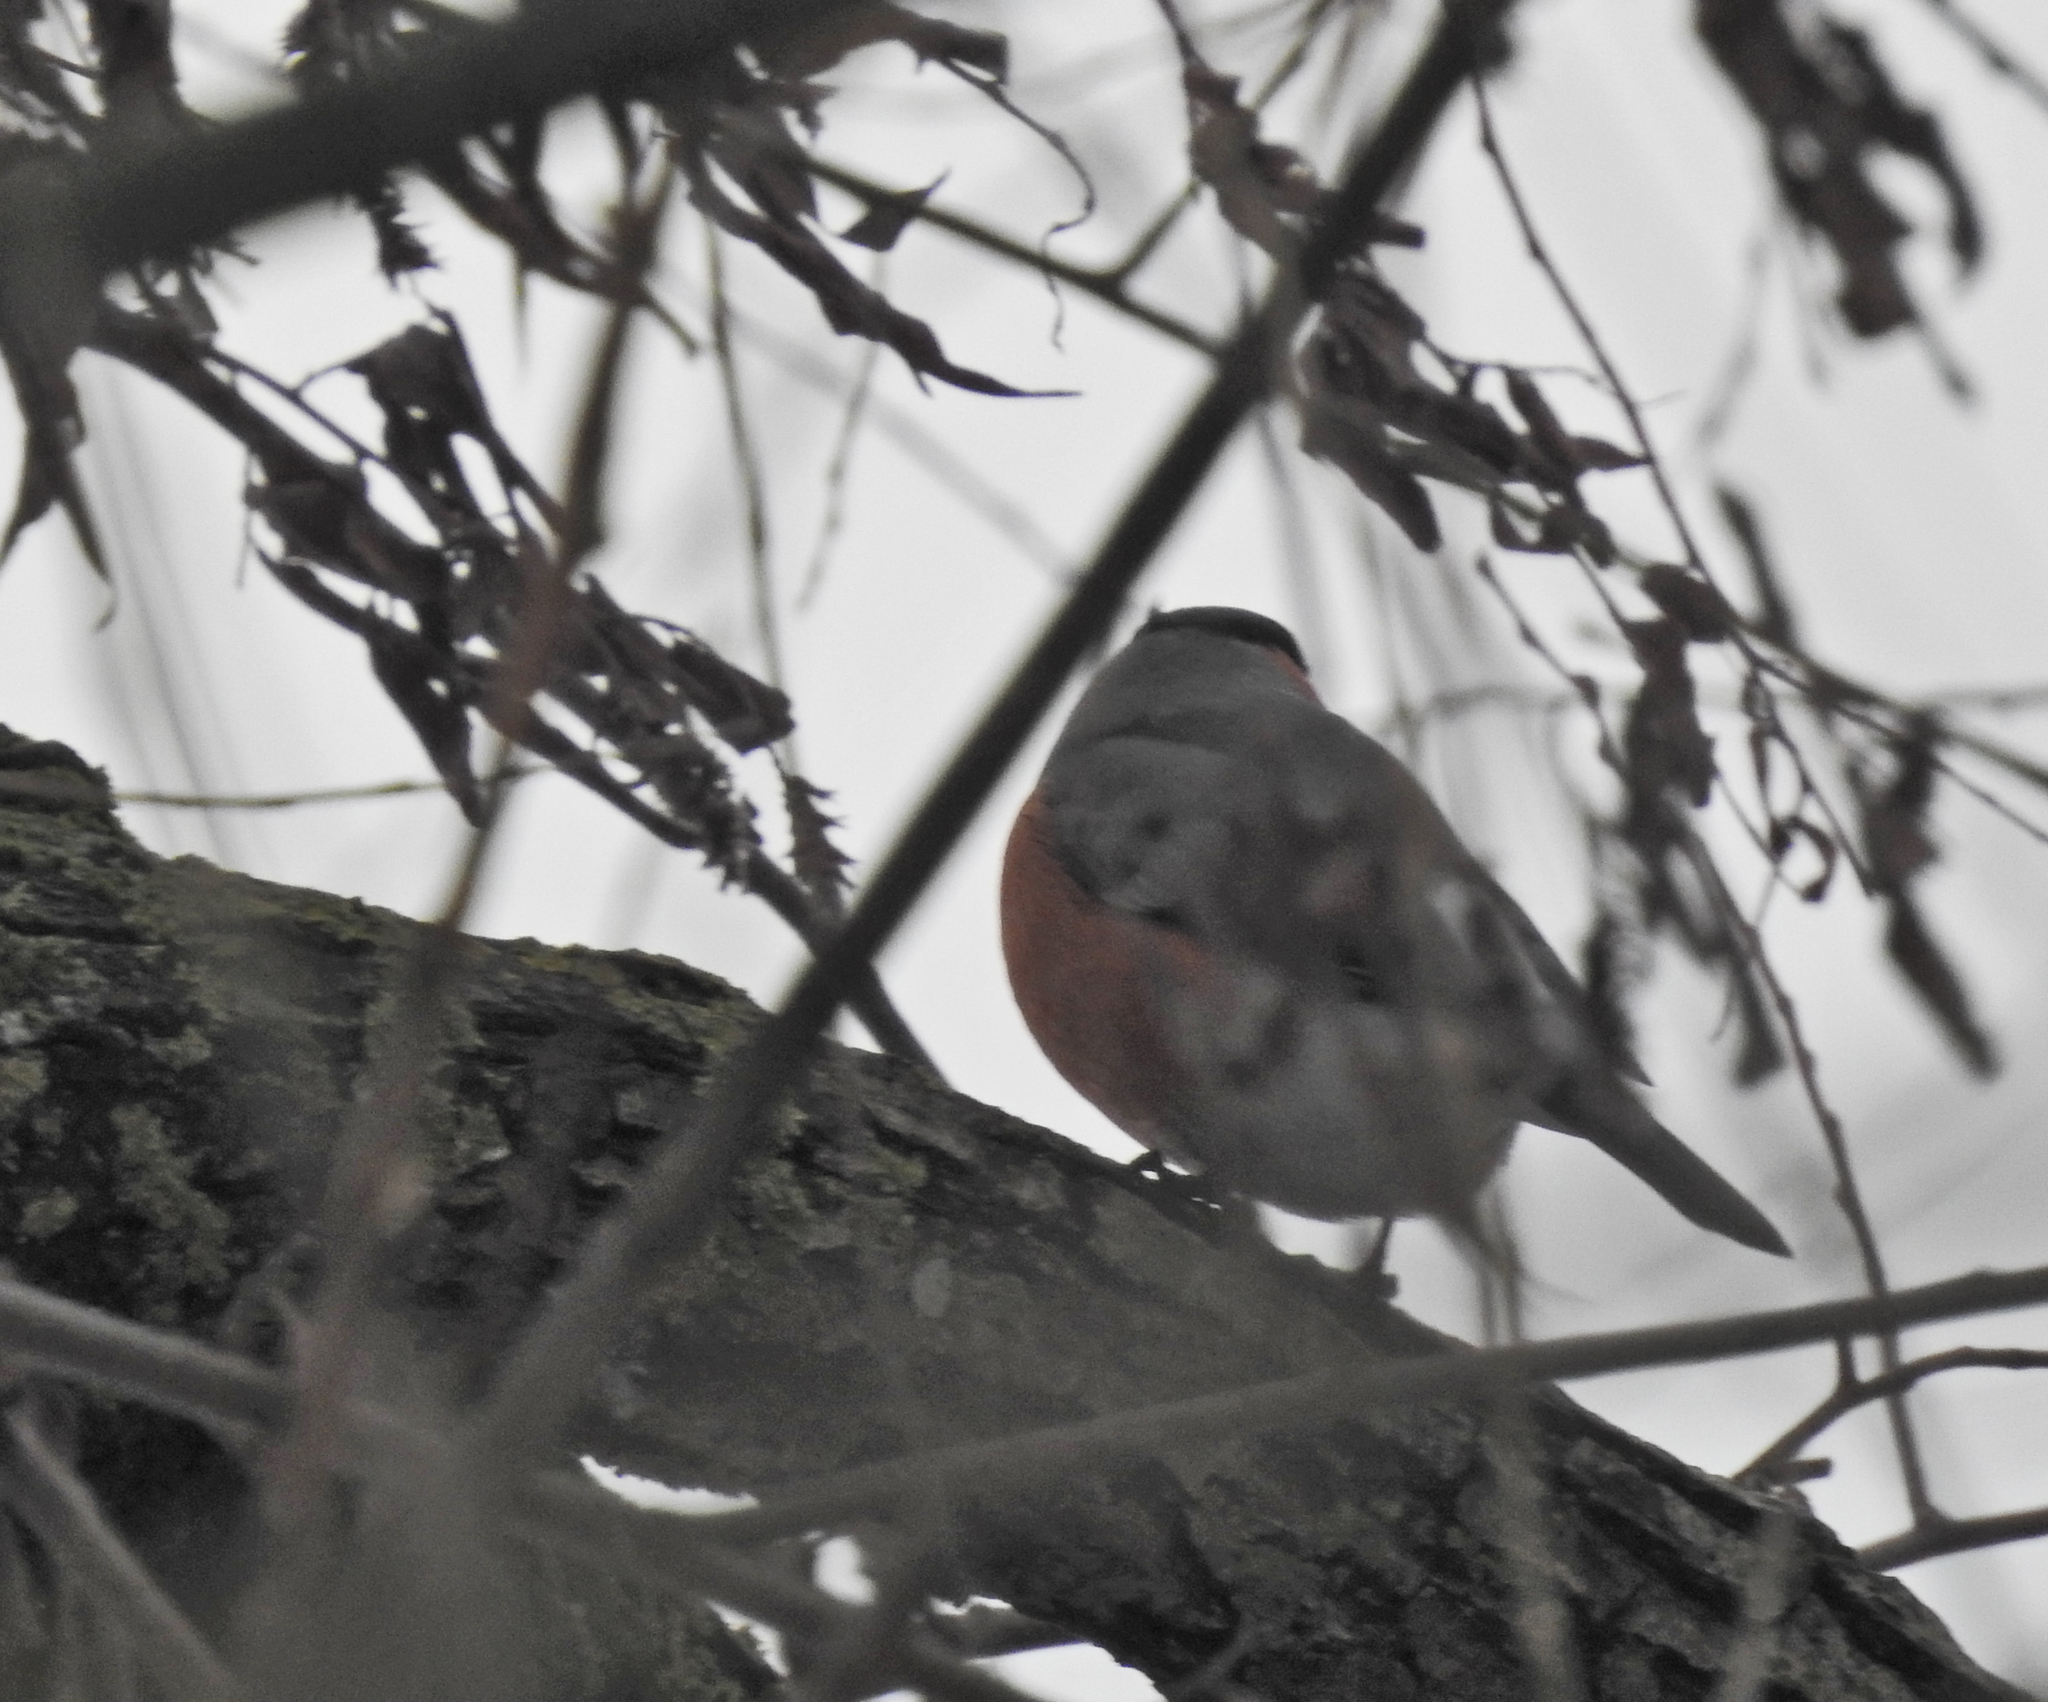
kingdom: Animalia
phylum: Chordata
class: Aves
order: Passeriformes
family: Fringillidae
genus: Pyrrhula
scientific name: Pyrrhula pyrrhula
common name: Eurasian bullfinch
